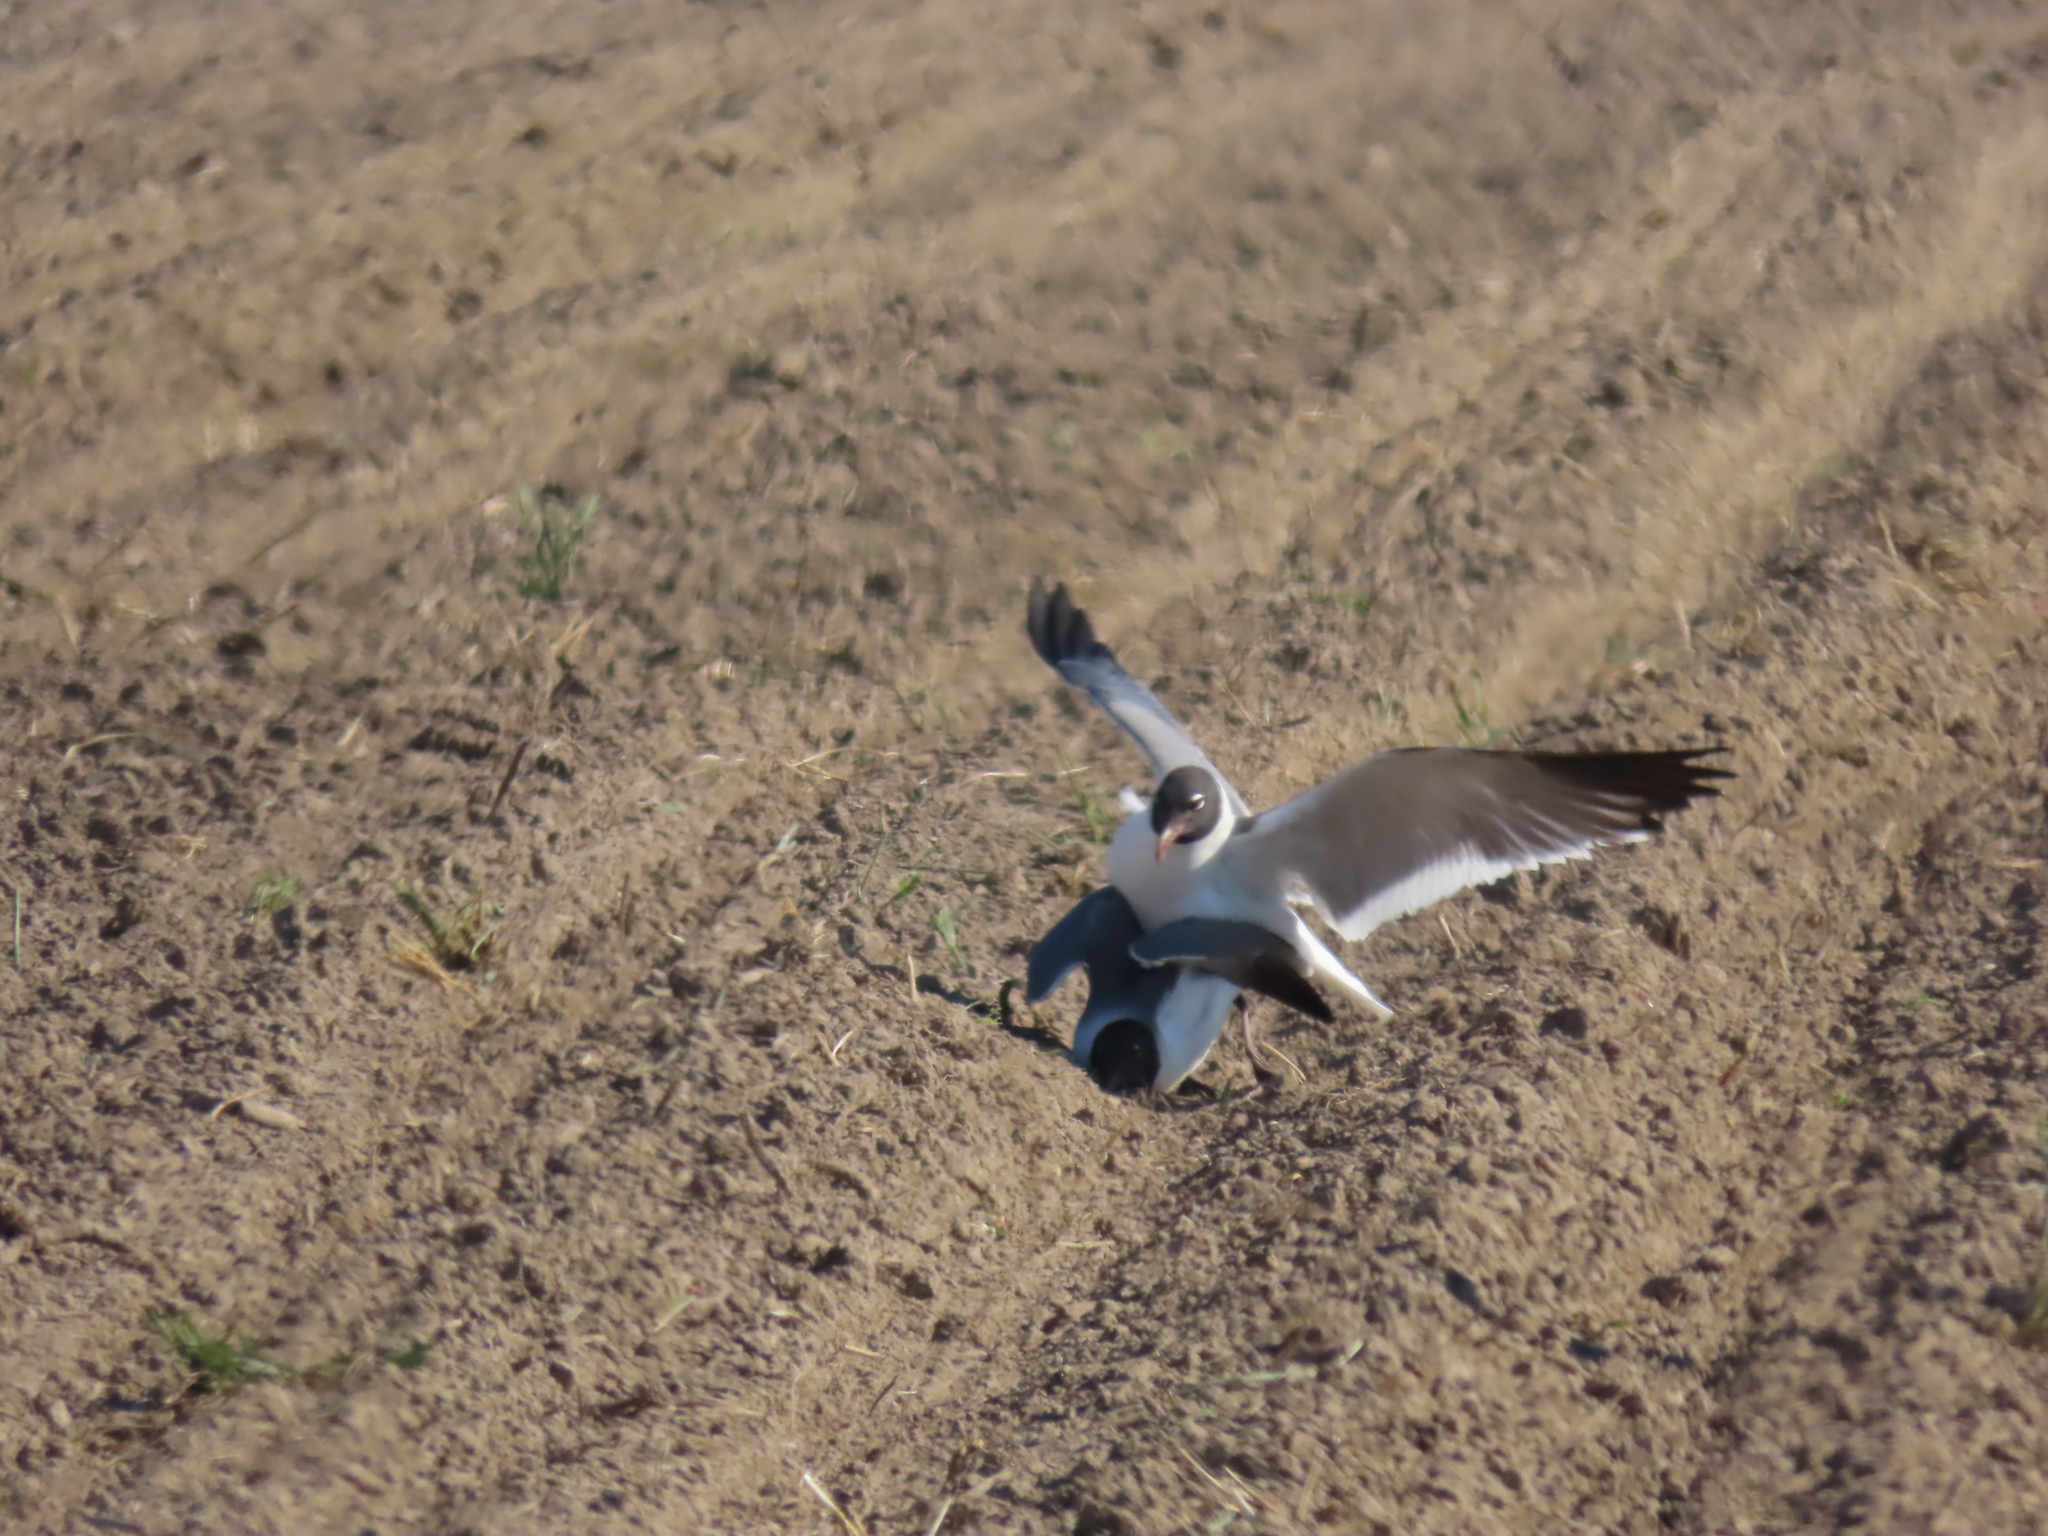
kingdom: Animalia
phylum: Chordata
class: Aves
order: Charadriiformes
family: Laridae
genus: Leucophaeus
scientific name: Leucophaeus atricilla
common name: Laughing gull
